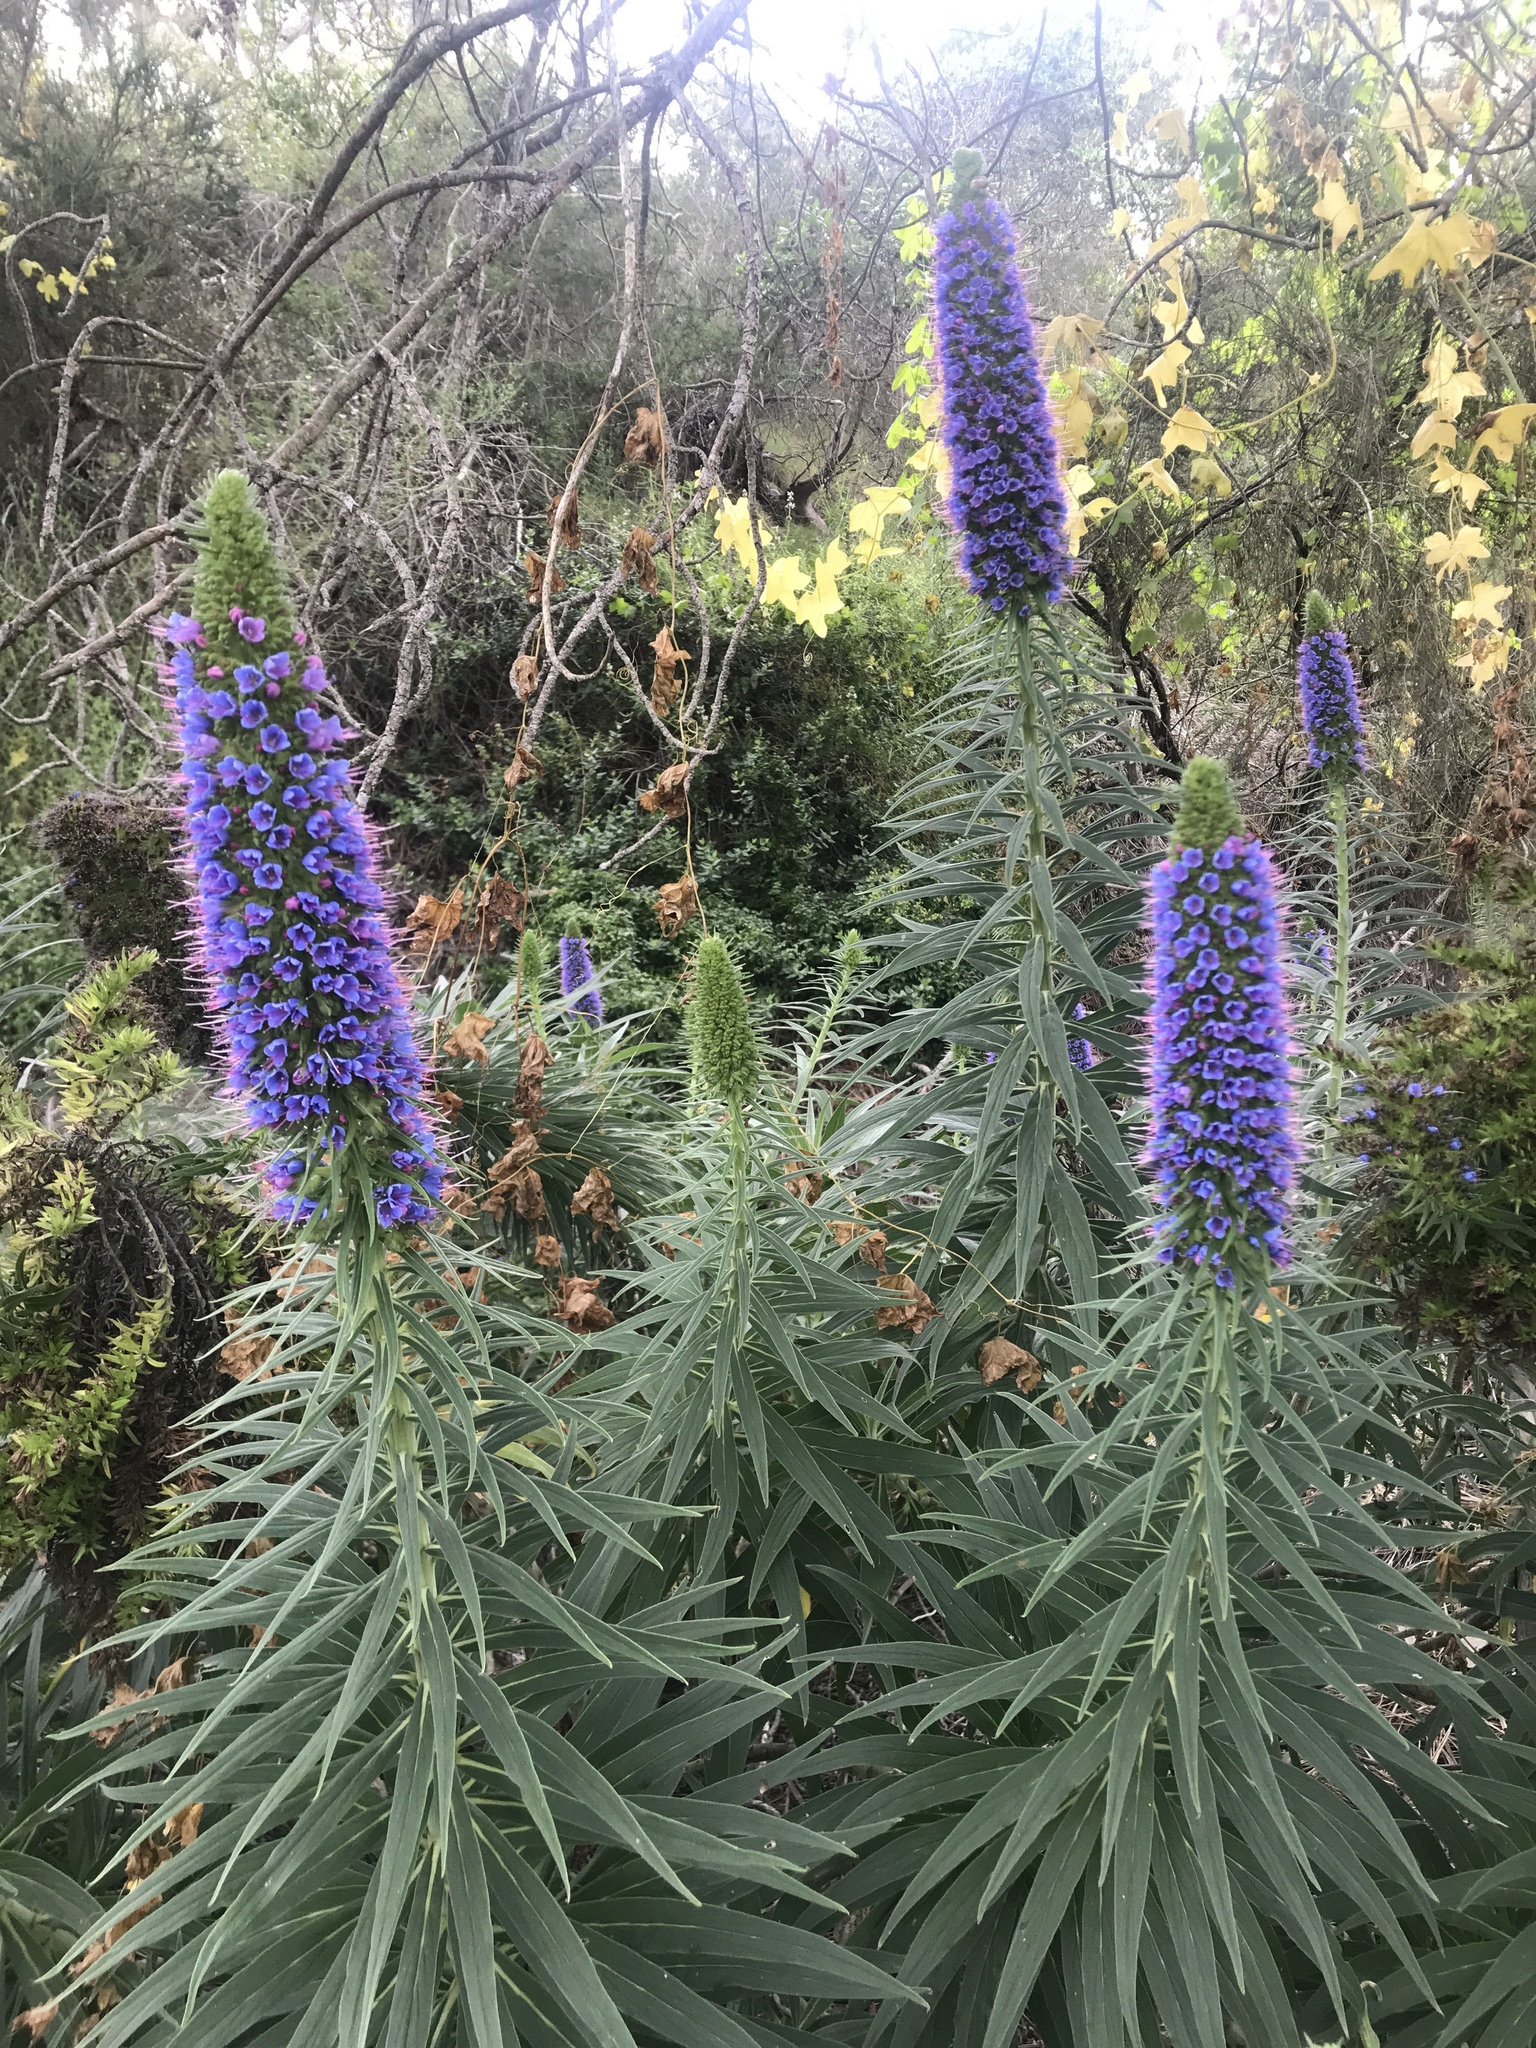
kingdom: Plantae
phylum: Tracheophyta
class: Magnoliopsida
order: Boraginales
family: Boraginaceae
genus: Echium
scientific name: Echium candicans
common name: Pride of madeira
